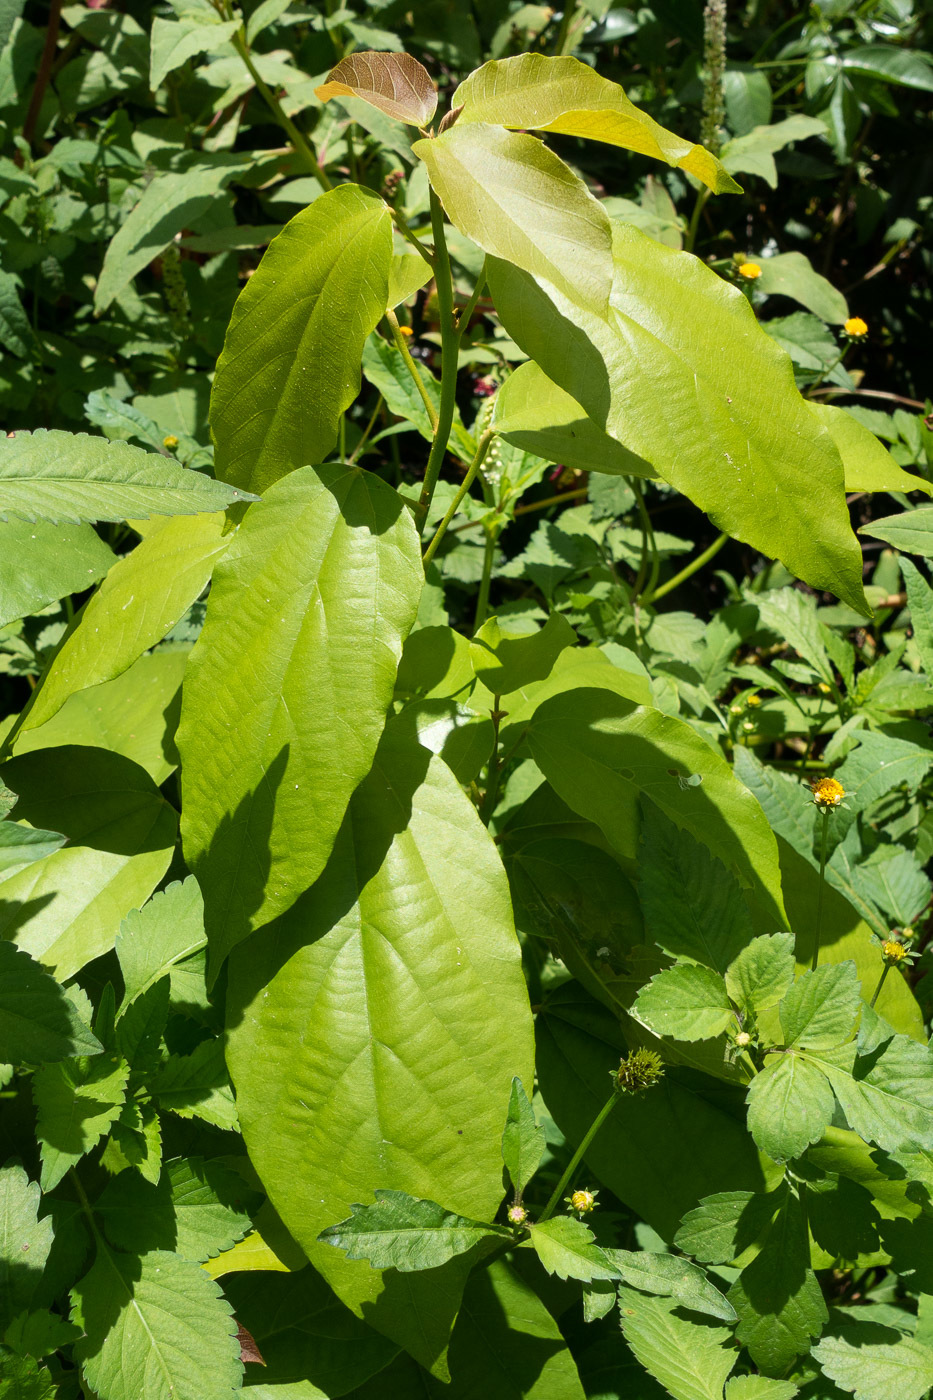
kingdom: Plantae
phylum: Tracheophyta
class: Magnoliopsida
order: Malpighiales
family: Euphorbiaceae
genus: Mallotus
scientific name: Mallotus philippensis
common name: Kamala tree
